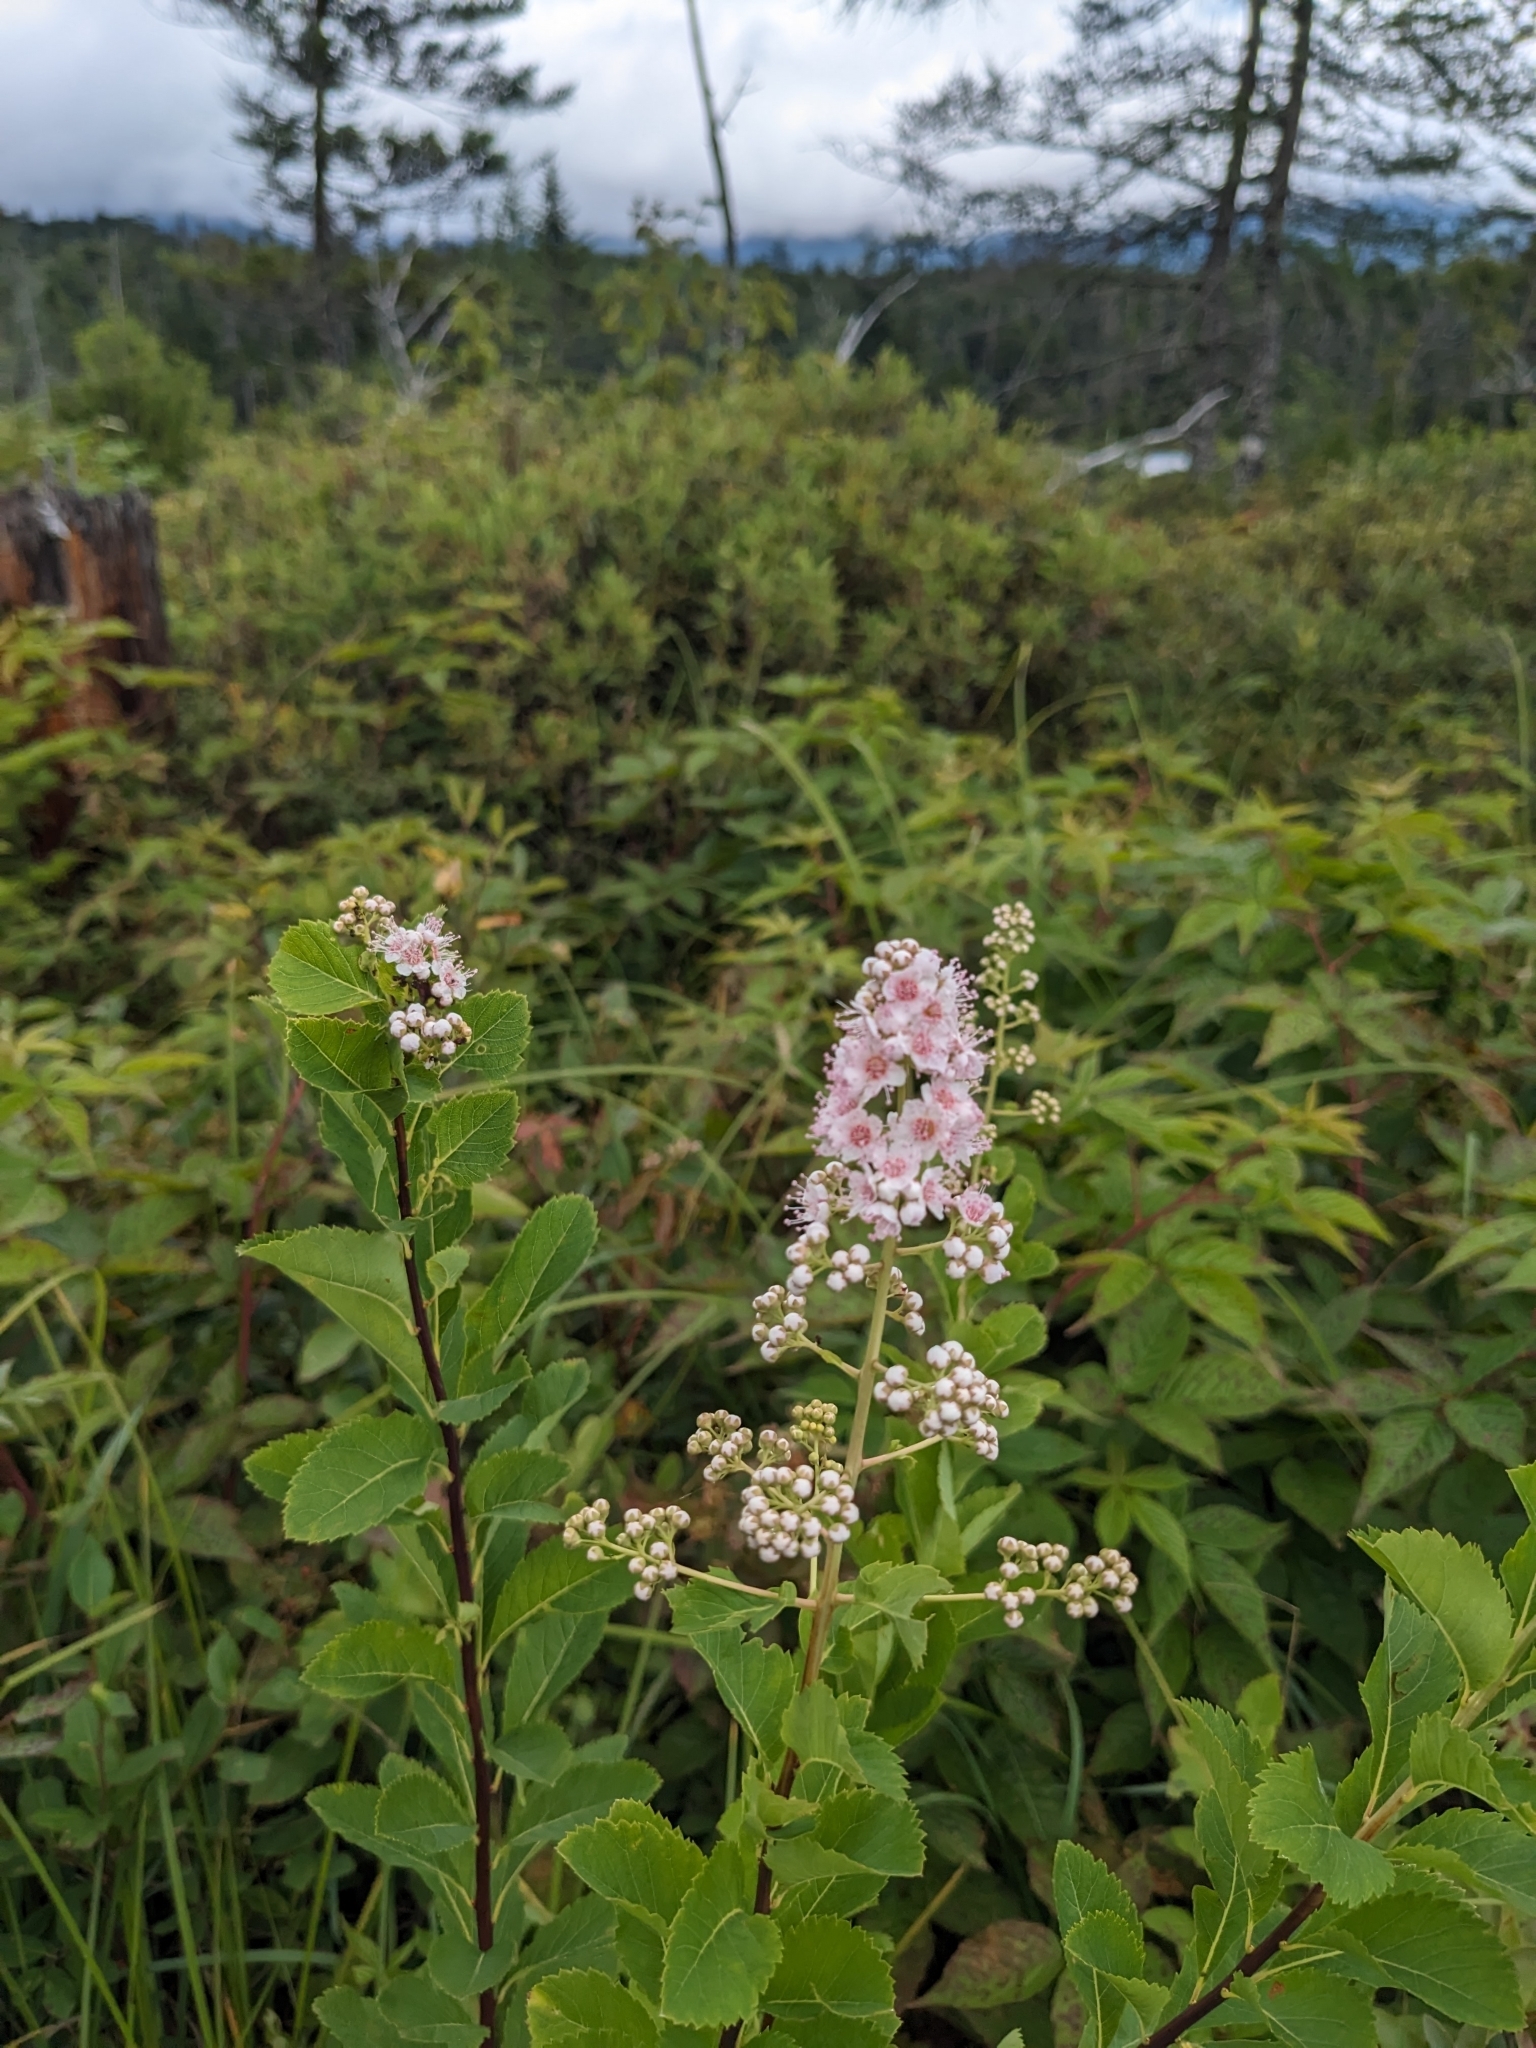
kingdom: Plantae
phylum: Tracheophyta
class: Magnoliopsida
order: Rosales
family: Rosaceae
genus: Spiraea
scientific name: Spiraea alba
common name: Pale bridewort
